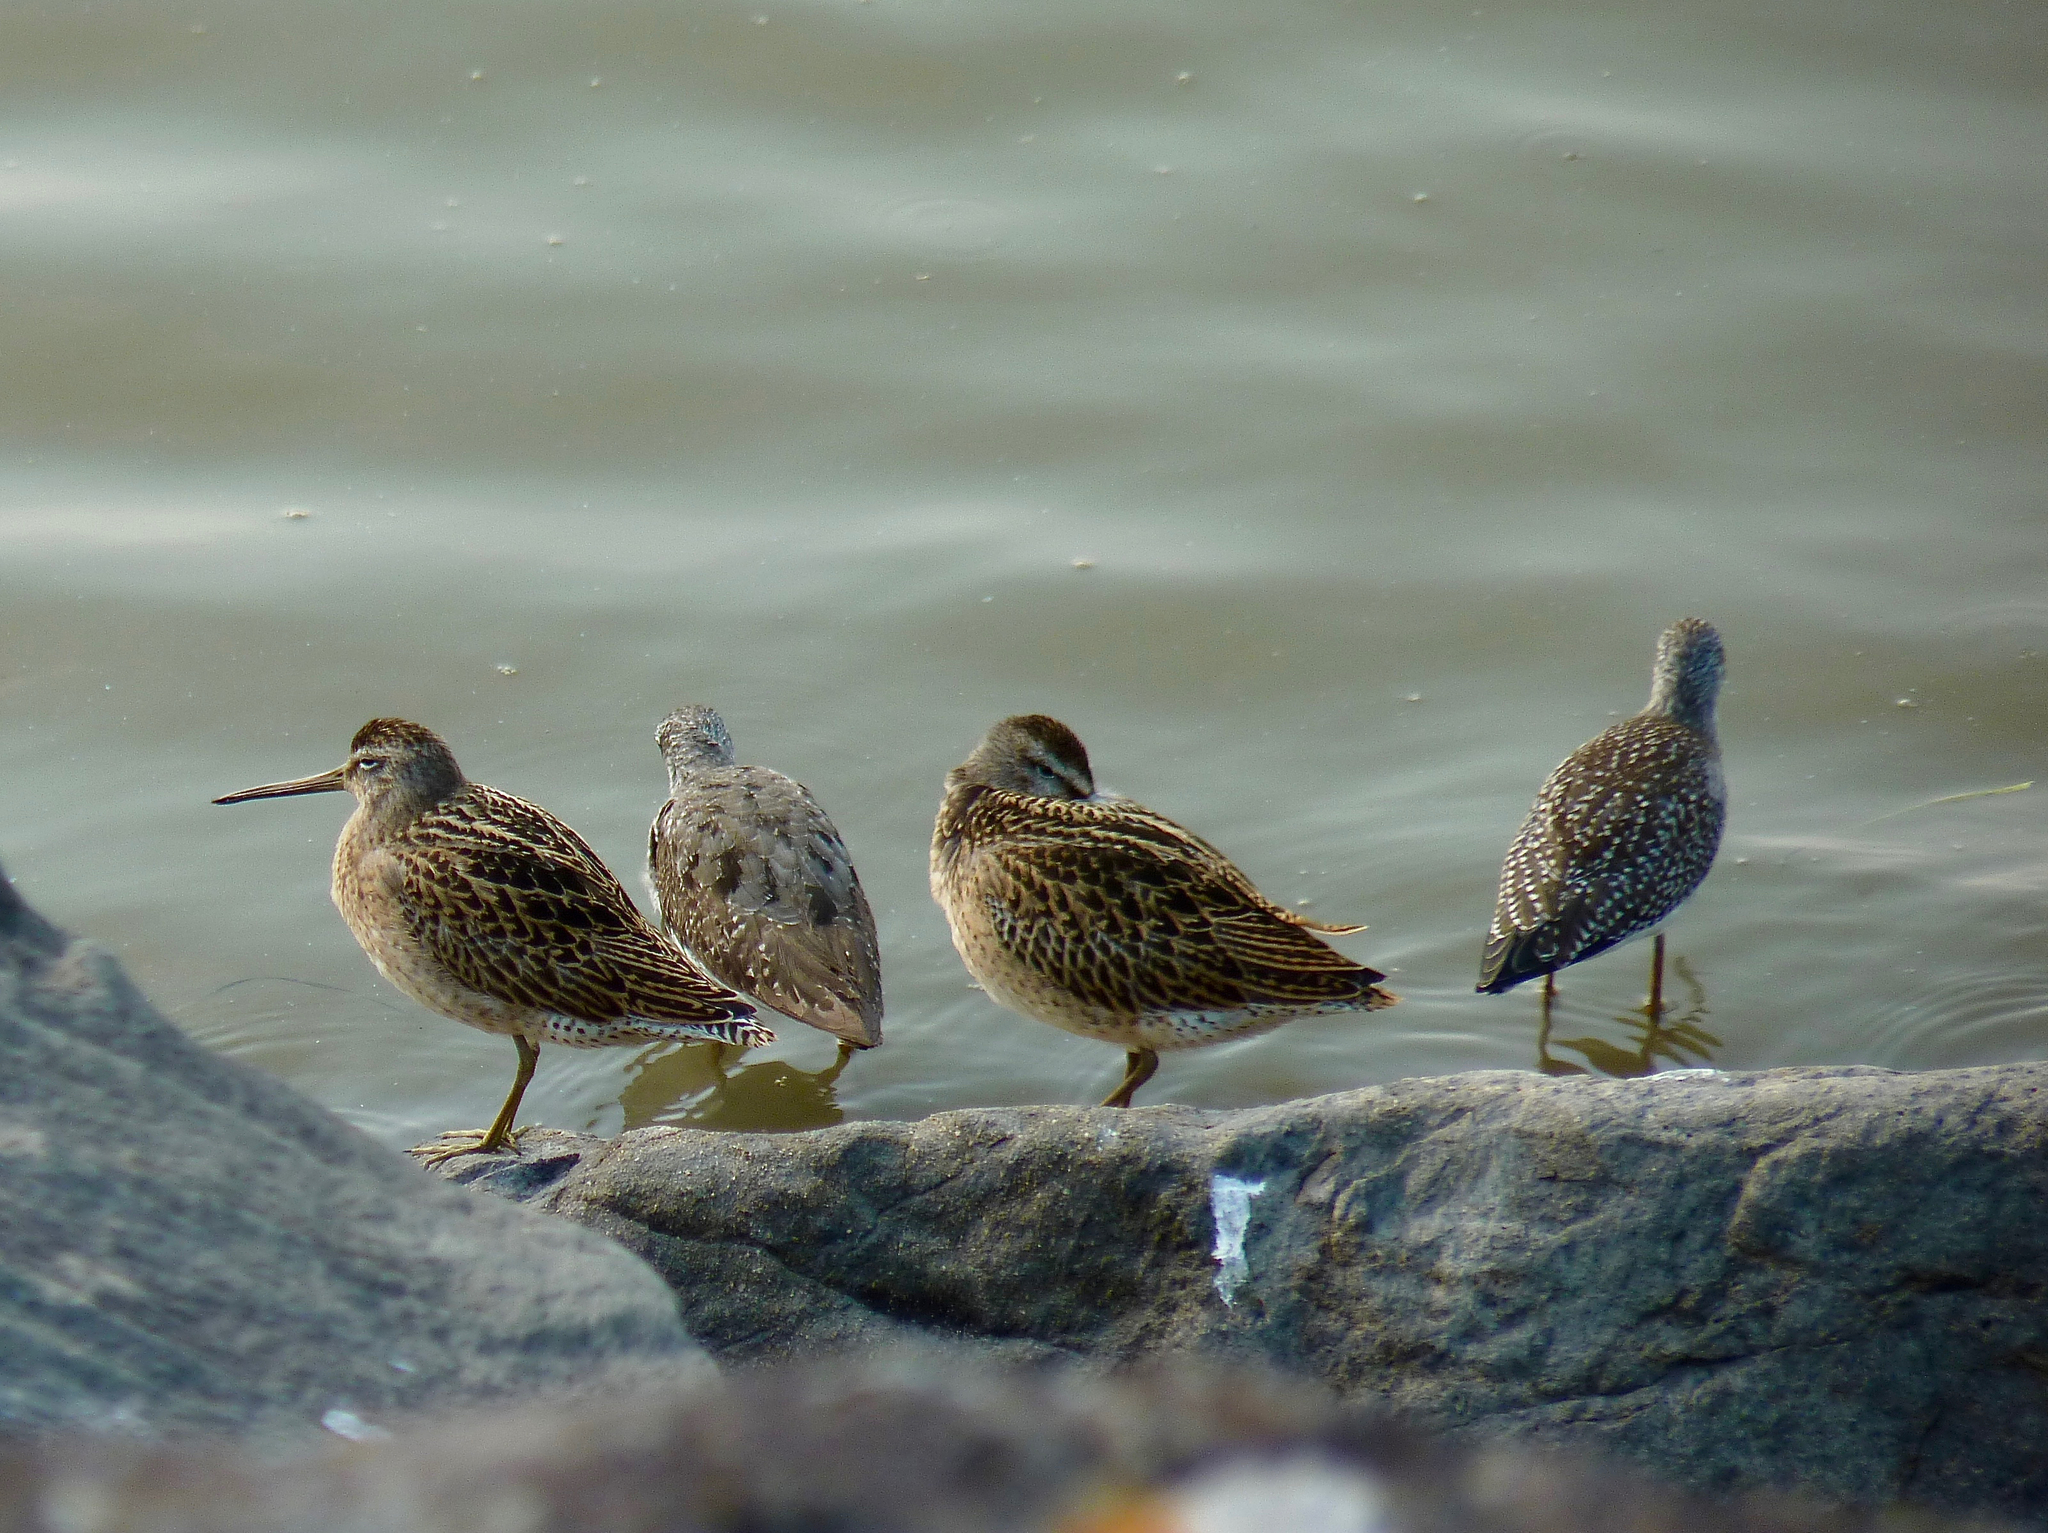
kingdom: Animalia
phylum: Chordata
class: Aves
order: Charadriiformes
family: Scolopacidae
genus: Limnodromus
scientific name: Limnodromus griseus
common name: Short-billed dowitcher
